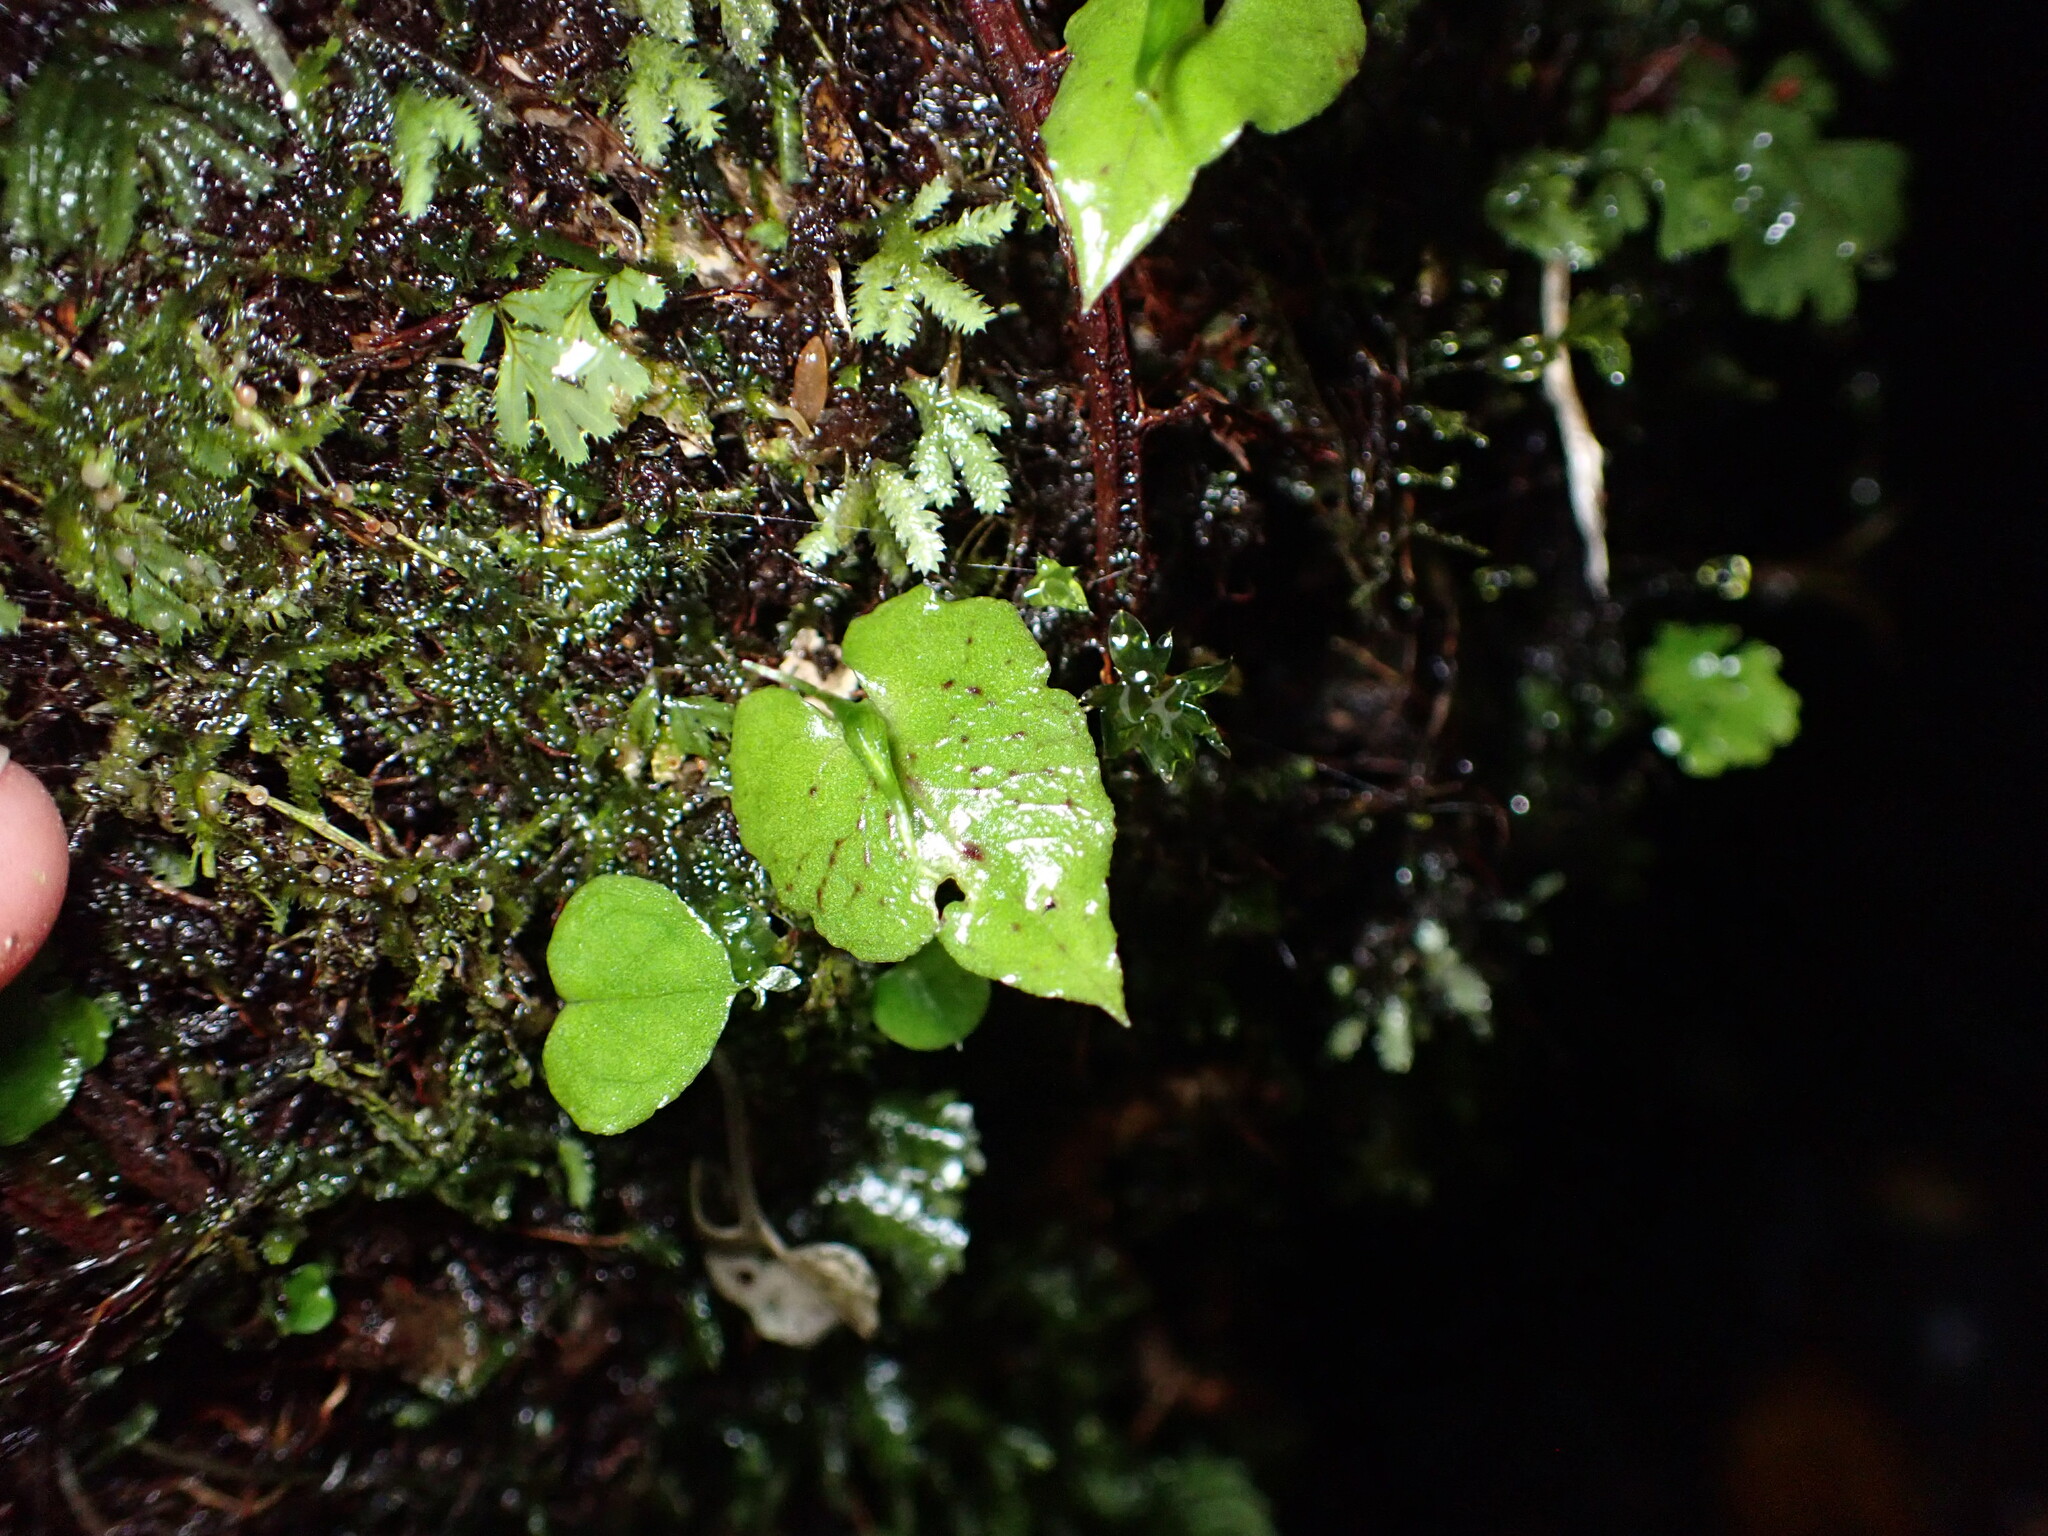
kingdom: Plantae
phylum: Tracheophyta
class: Liliopsida
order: Asparagales
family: Orchidaceae
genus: Corybas
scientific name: Corybas acuminatus
